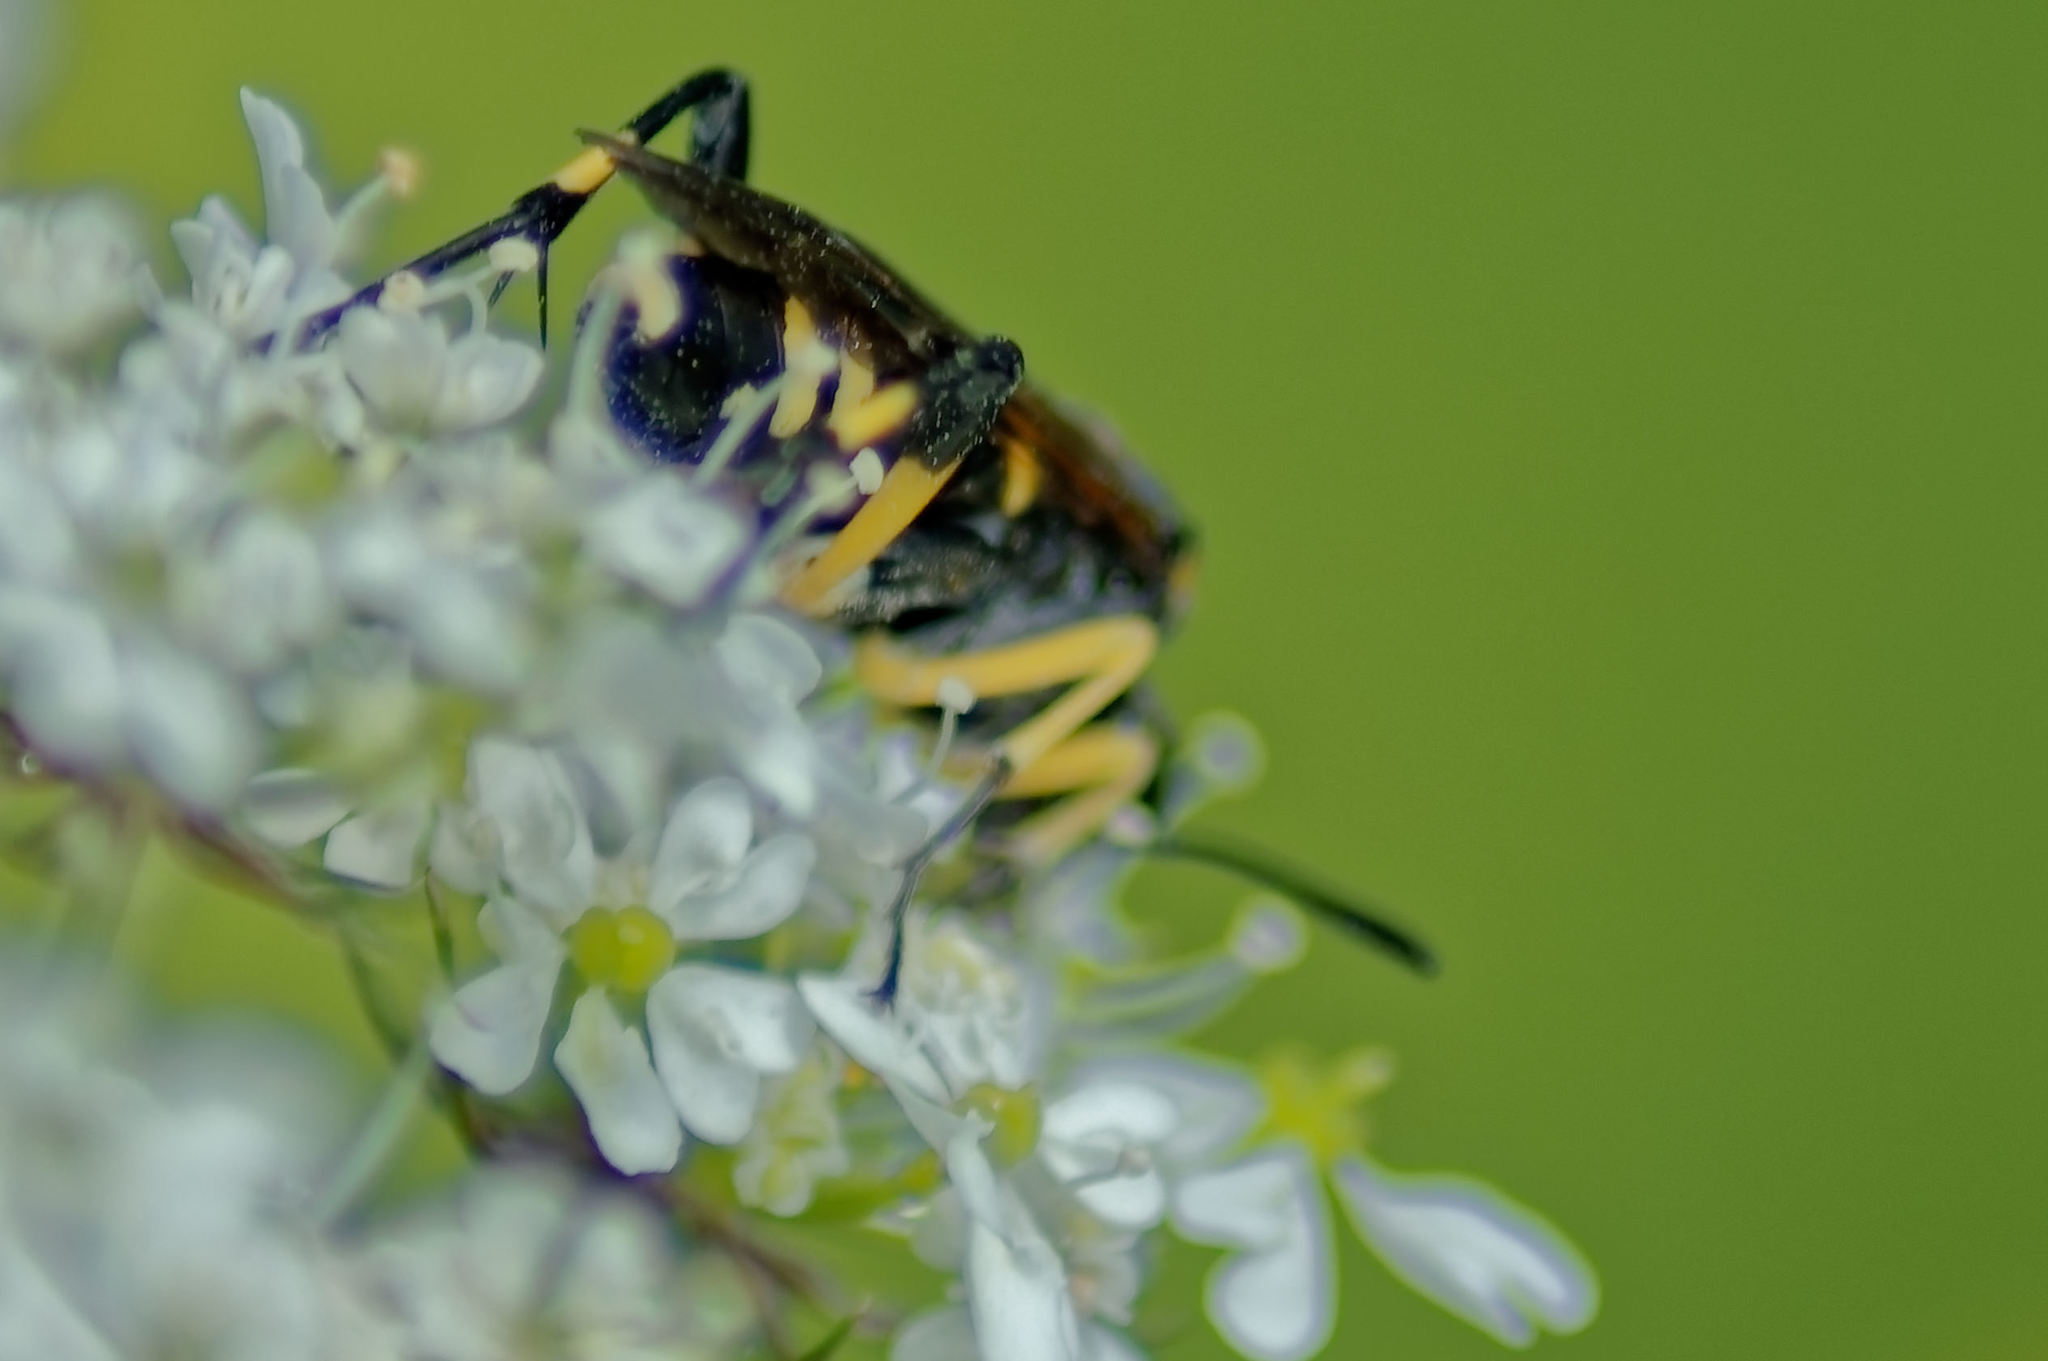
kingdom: Animalia
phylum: Arthropoda
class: Insecta
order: Hymenoptera
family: Tenthredinidae
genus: Macrophya
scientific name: Macrophya montana
